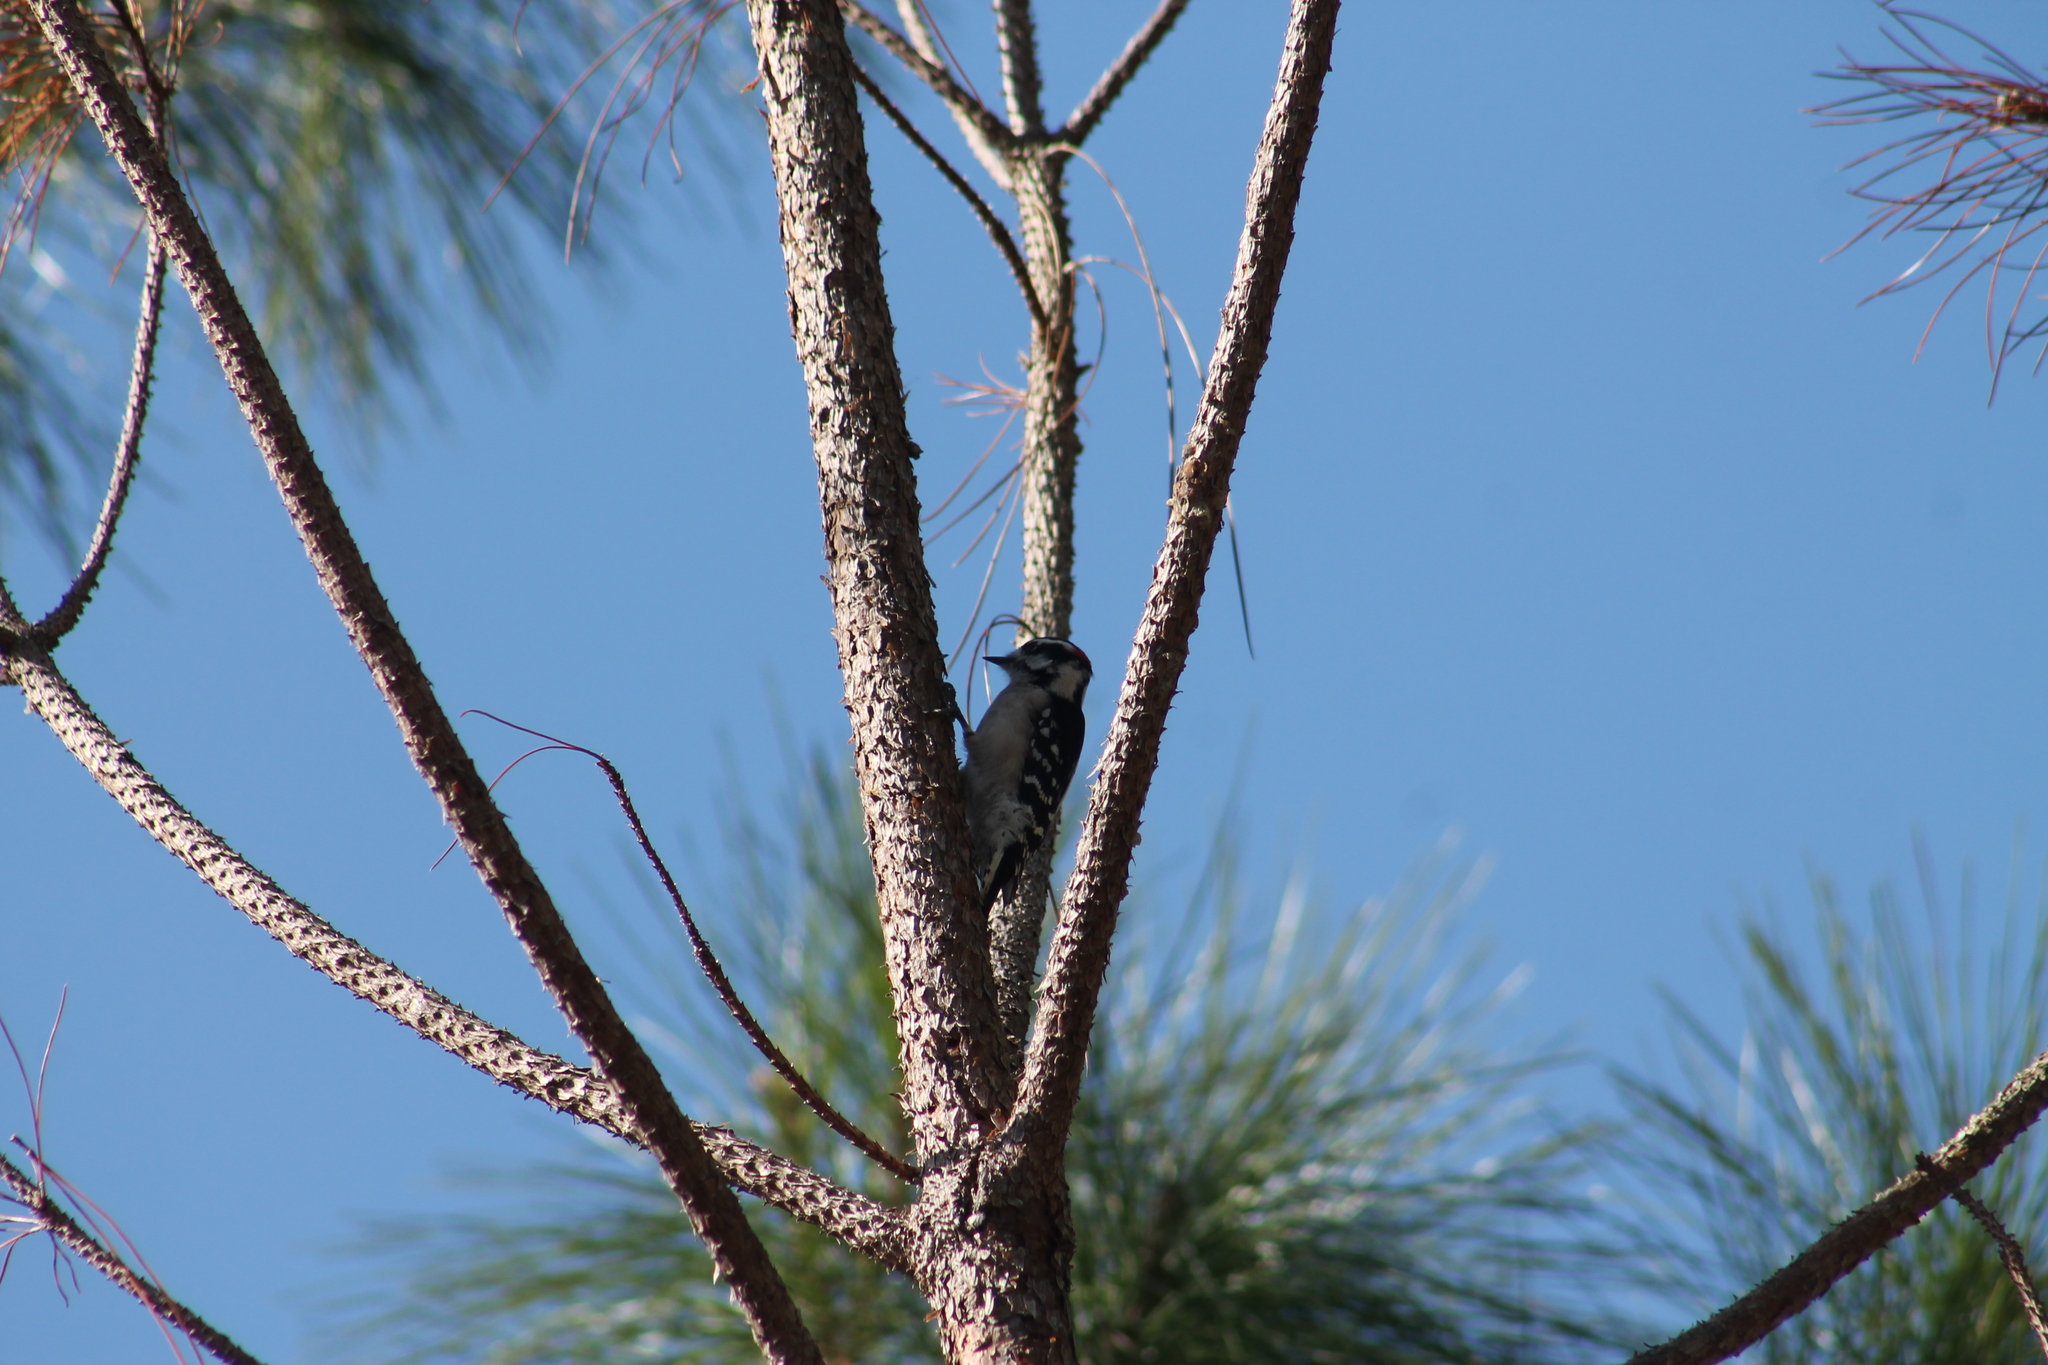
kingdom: Animalia
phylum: Chordata
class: Aves
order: Piciformes
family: Picidae
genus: Dryobates
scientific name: Dryobates pubescens
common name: Downy woodpecker
